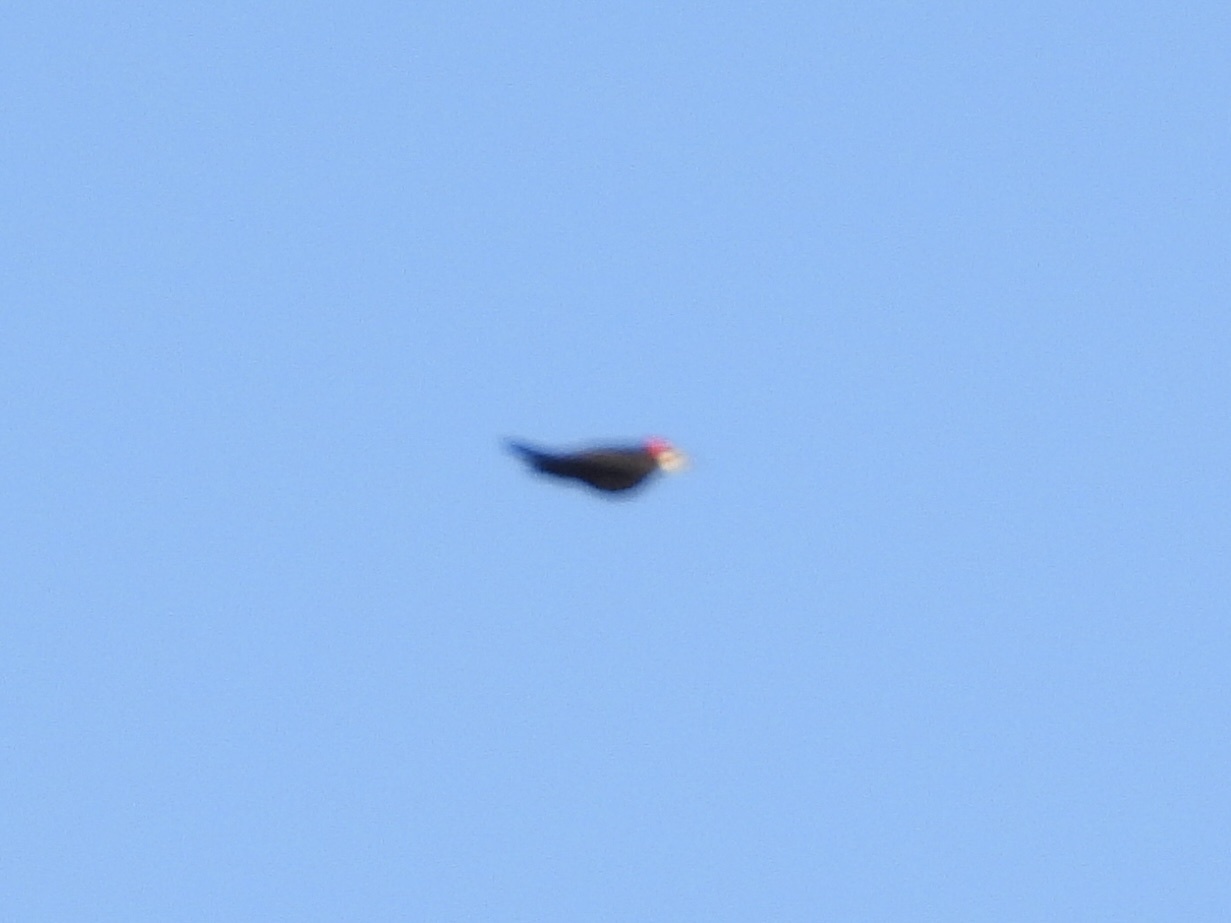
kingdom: Animalia
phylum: Chordata
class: Aves
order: Piciformes
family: Picidae
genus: Dryocopus
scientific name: Dryocopus pileatus
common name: Pileated woodpecker
